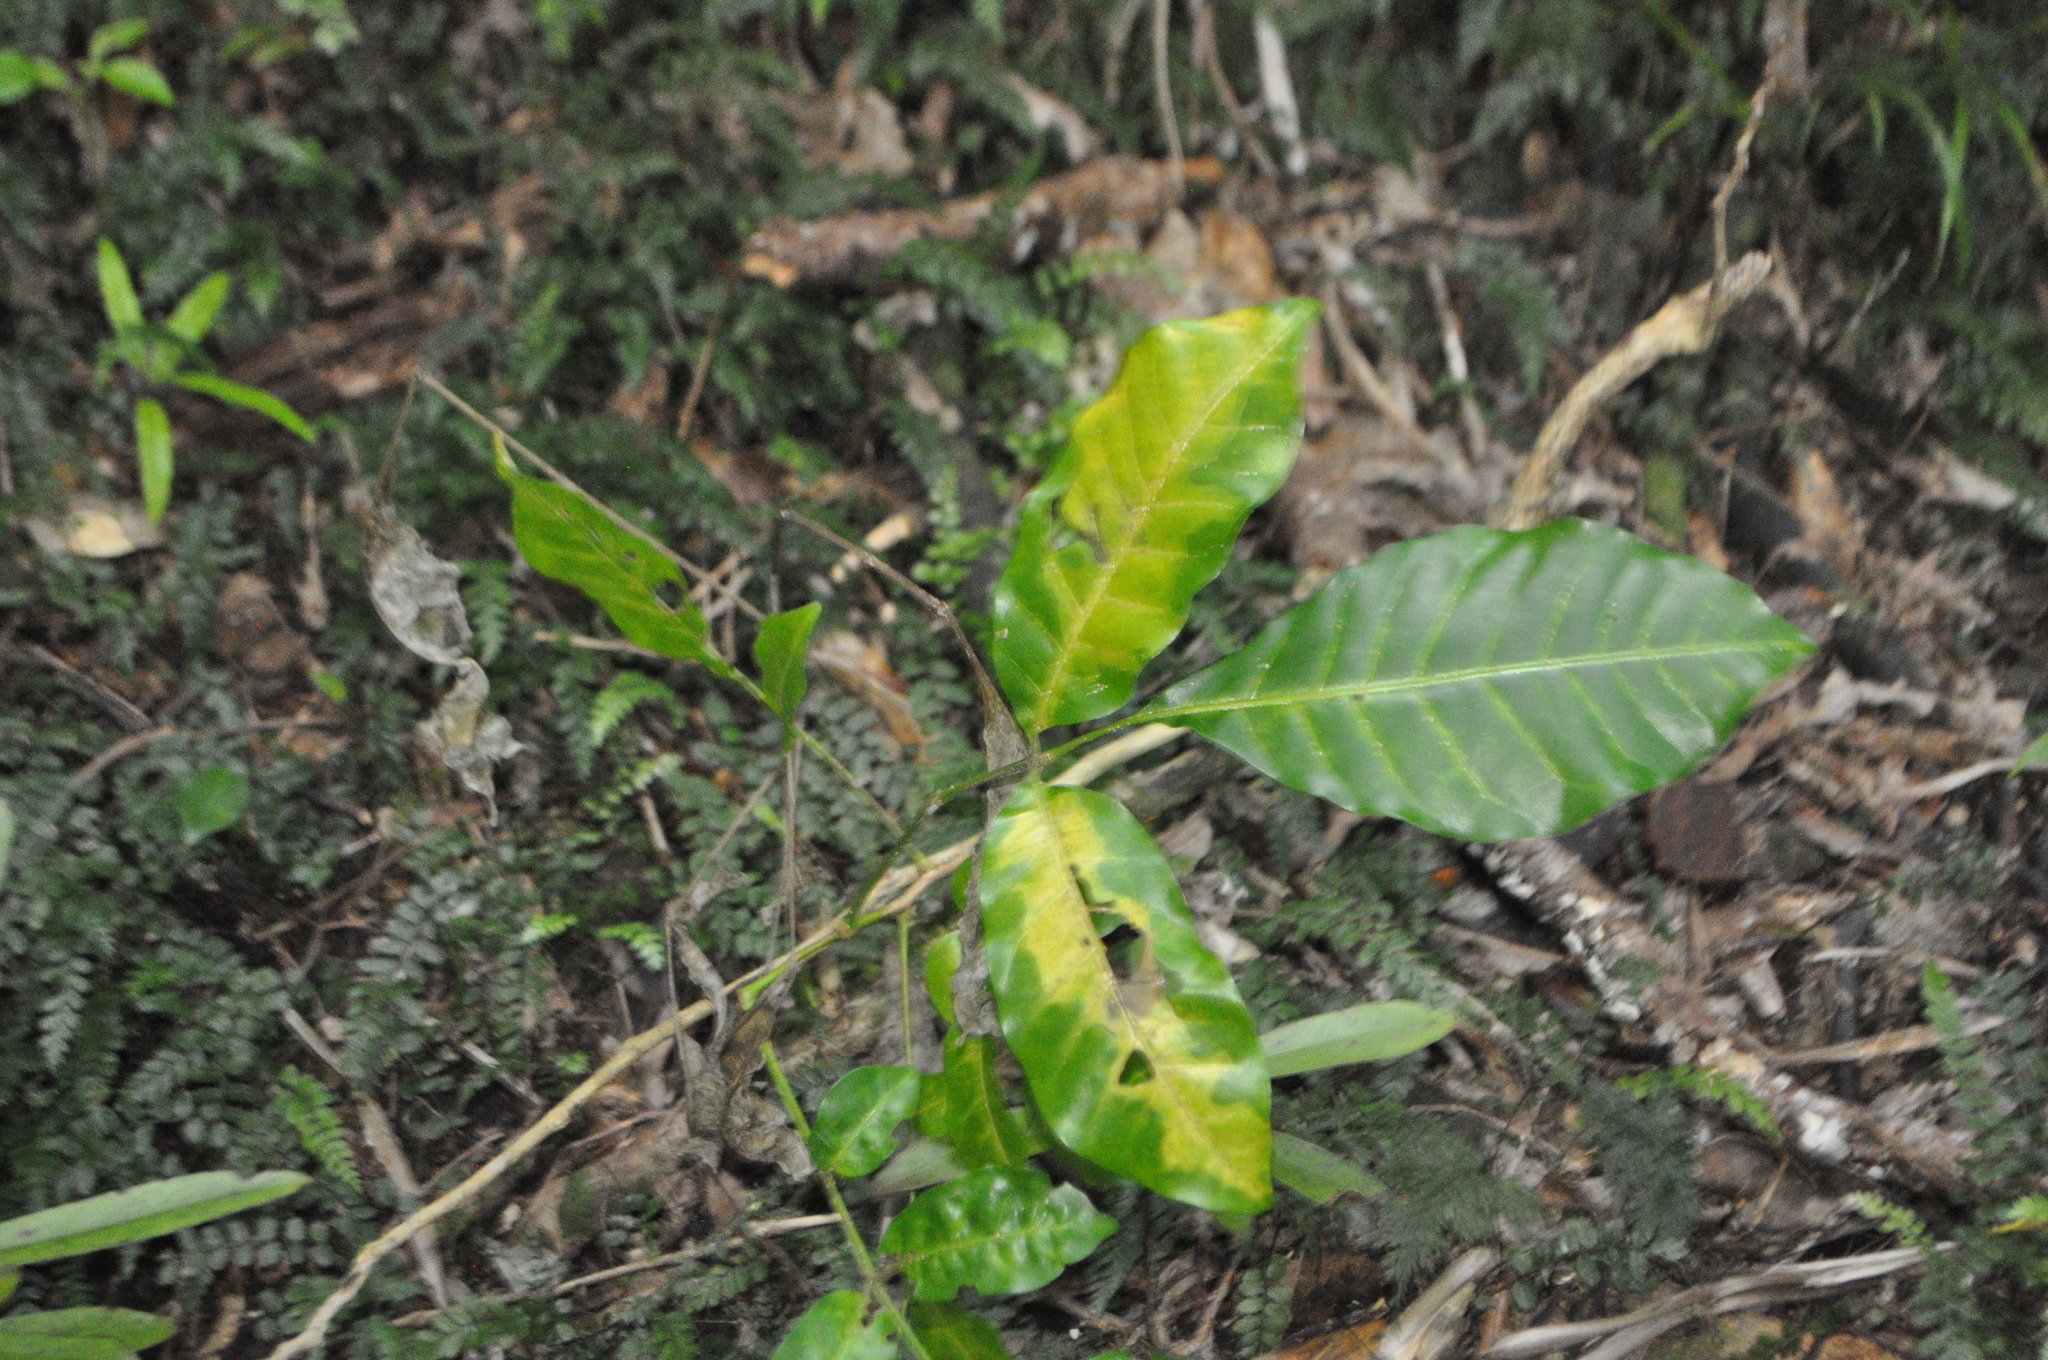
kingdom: Plantae
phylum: Tracheophyta
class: Magnoliopsida
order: Sapindales
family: Meliaceae
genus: Didymocheton
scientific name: Didymocheton spectabilis
